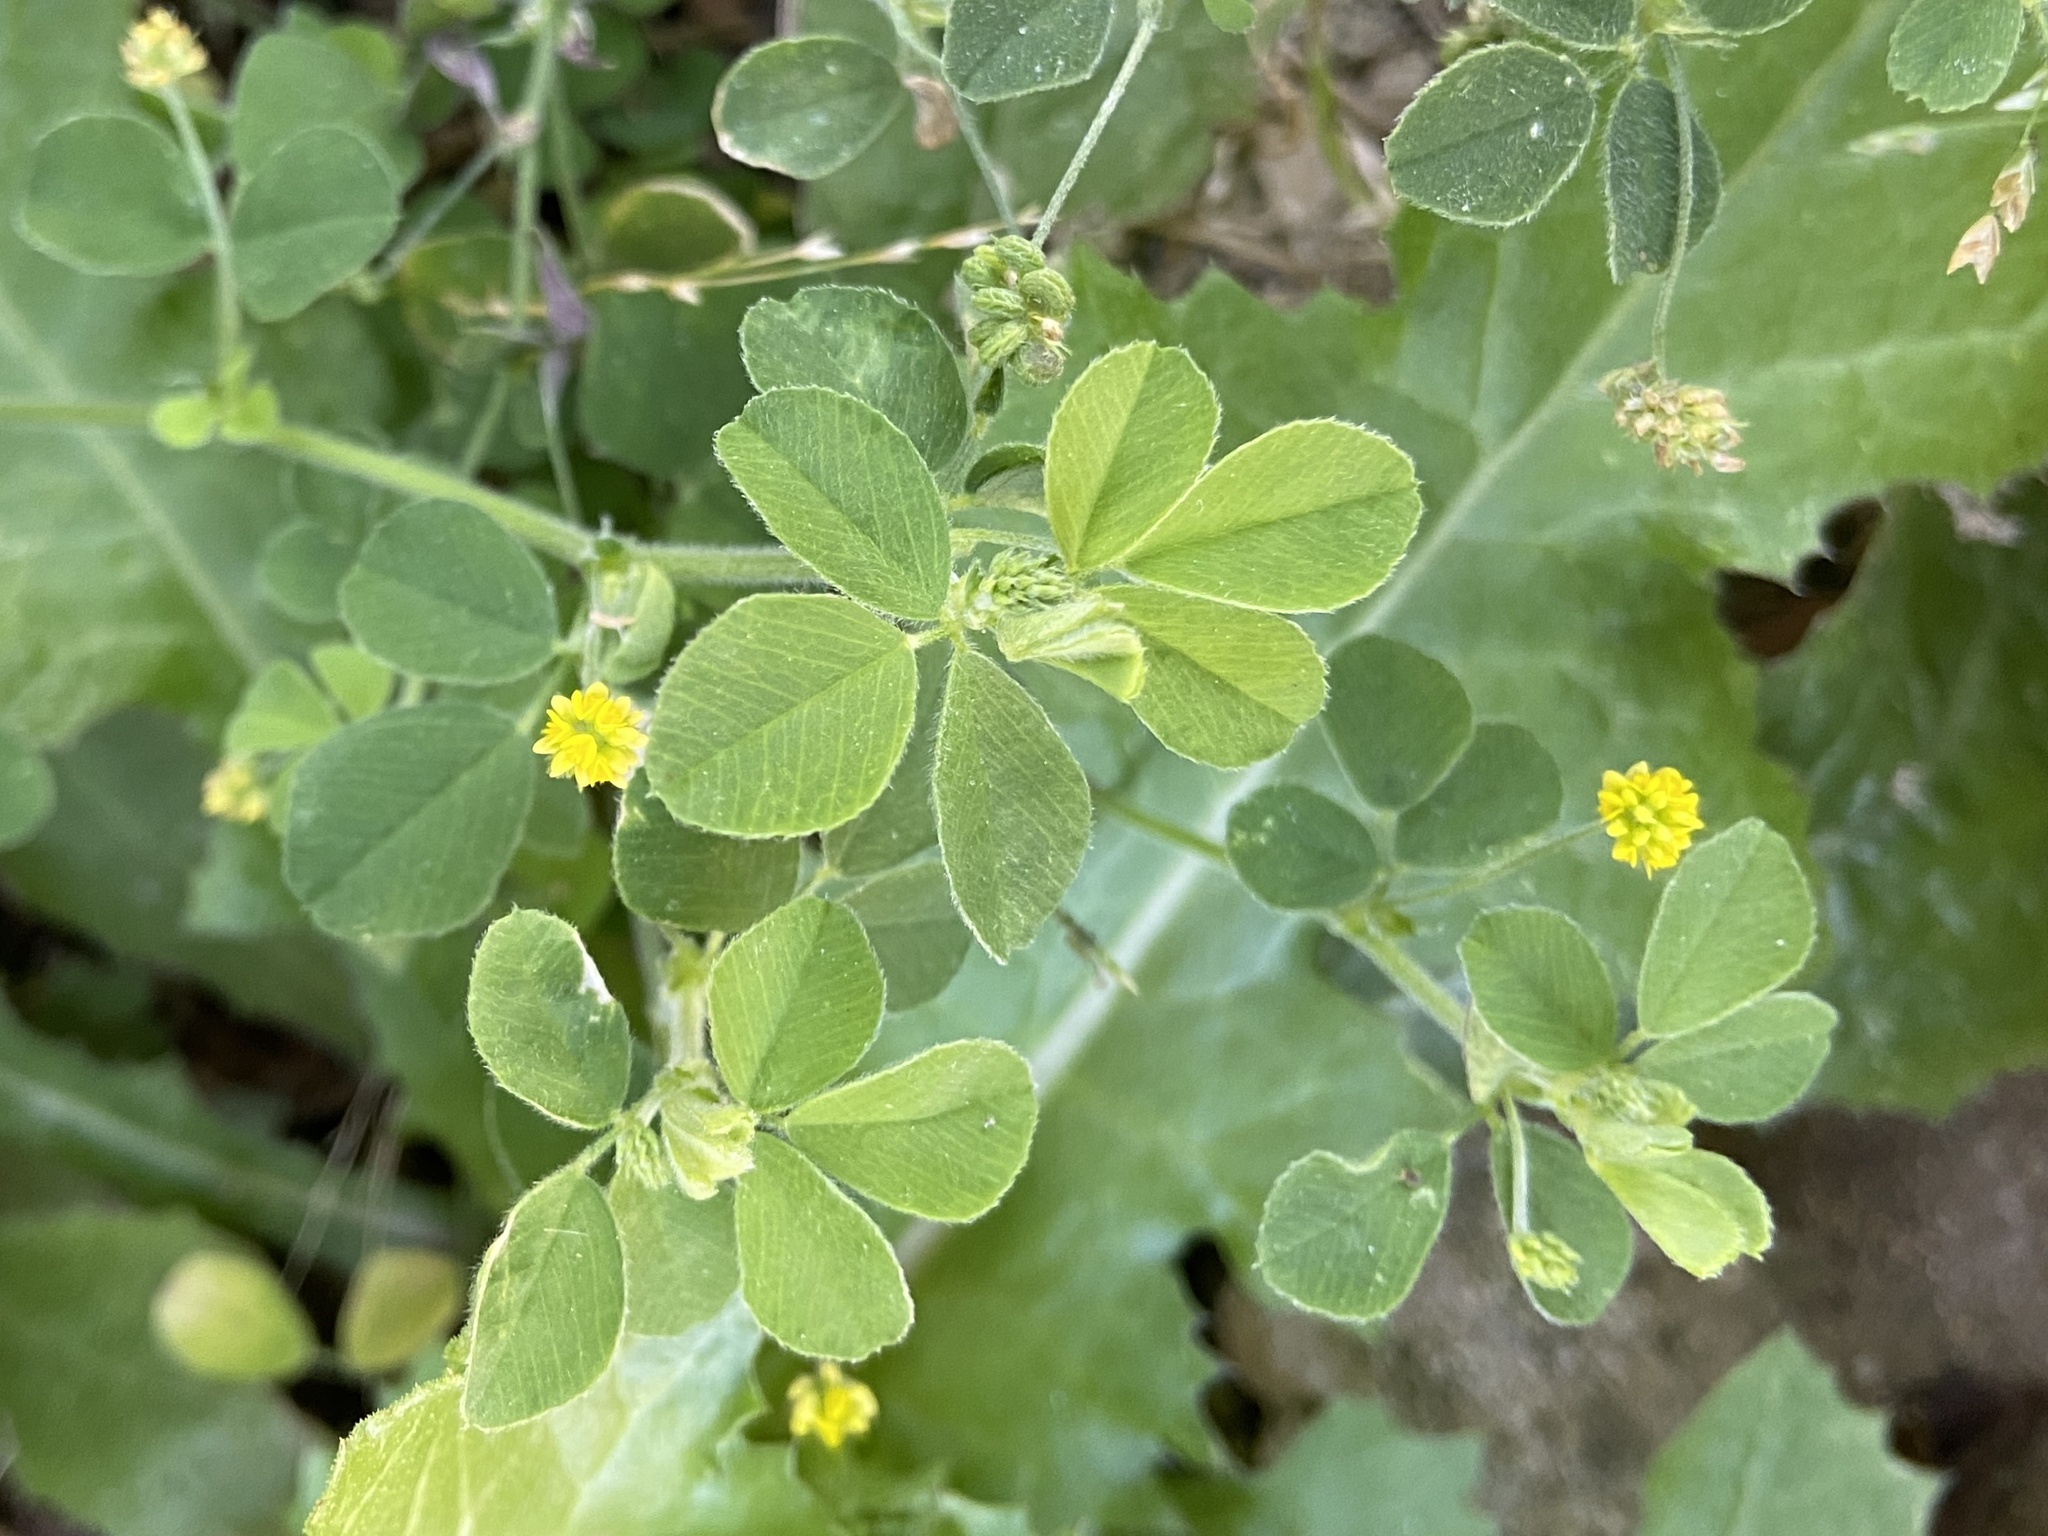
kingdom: Plantae
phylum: Tracheophyta
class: Magnoliopsida
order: Fabales
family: Fabaceae
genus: Medicago
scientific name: Medicago lupulina
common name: Black medick
